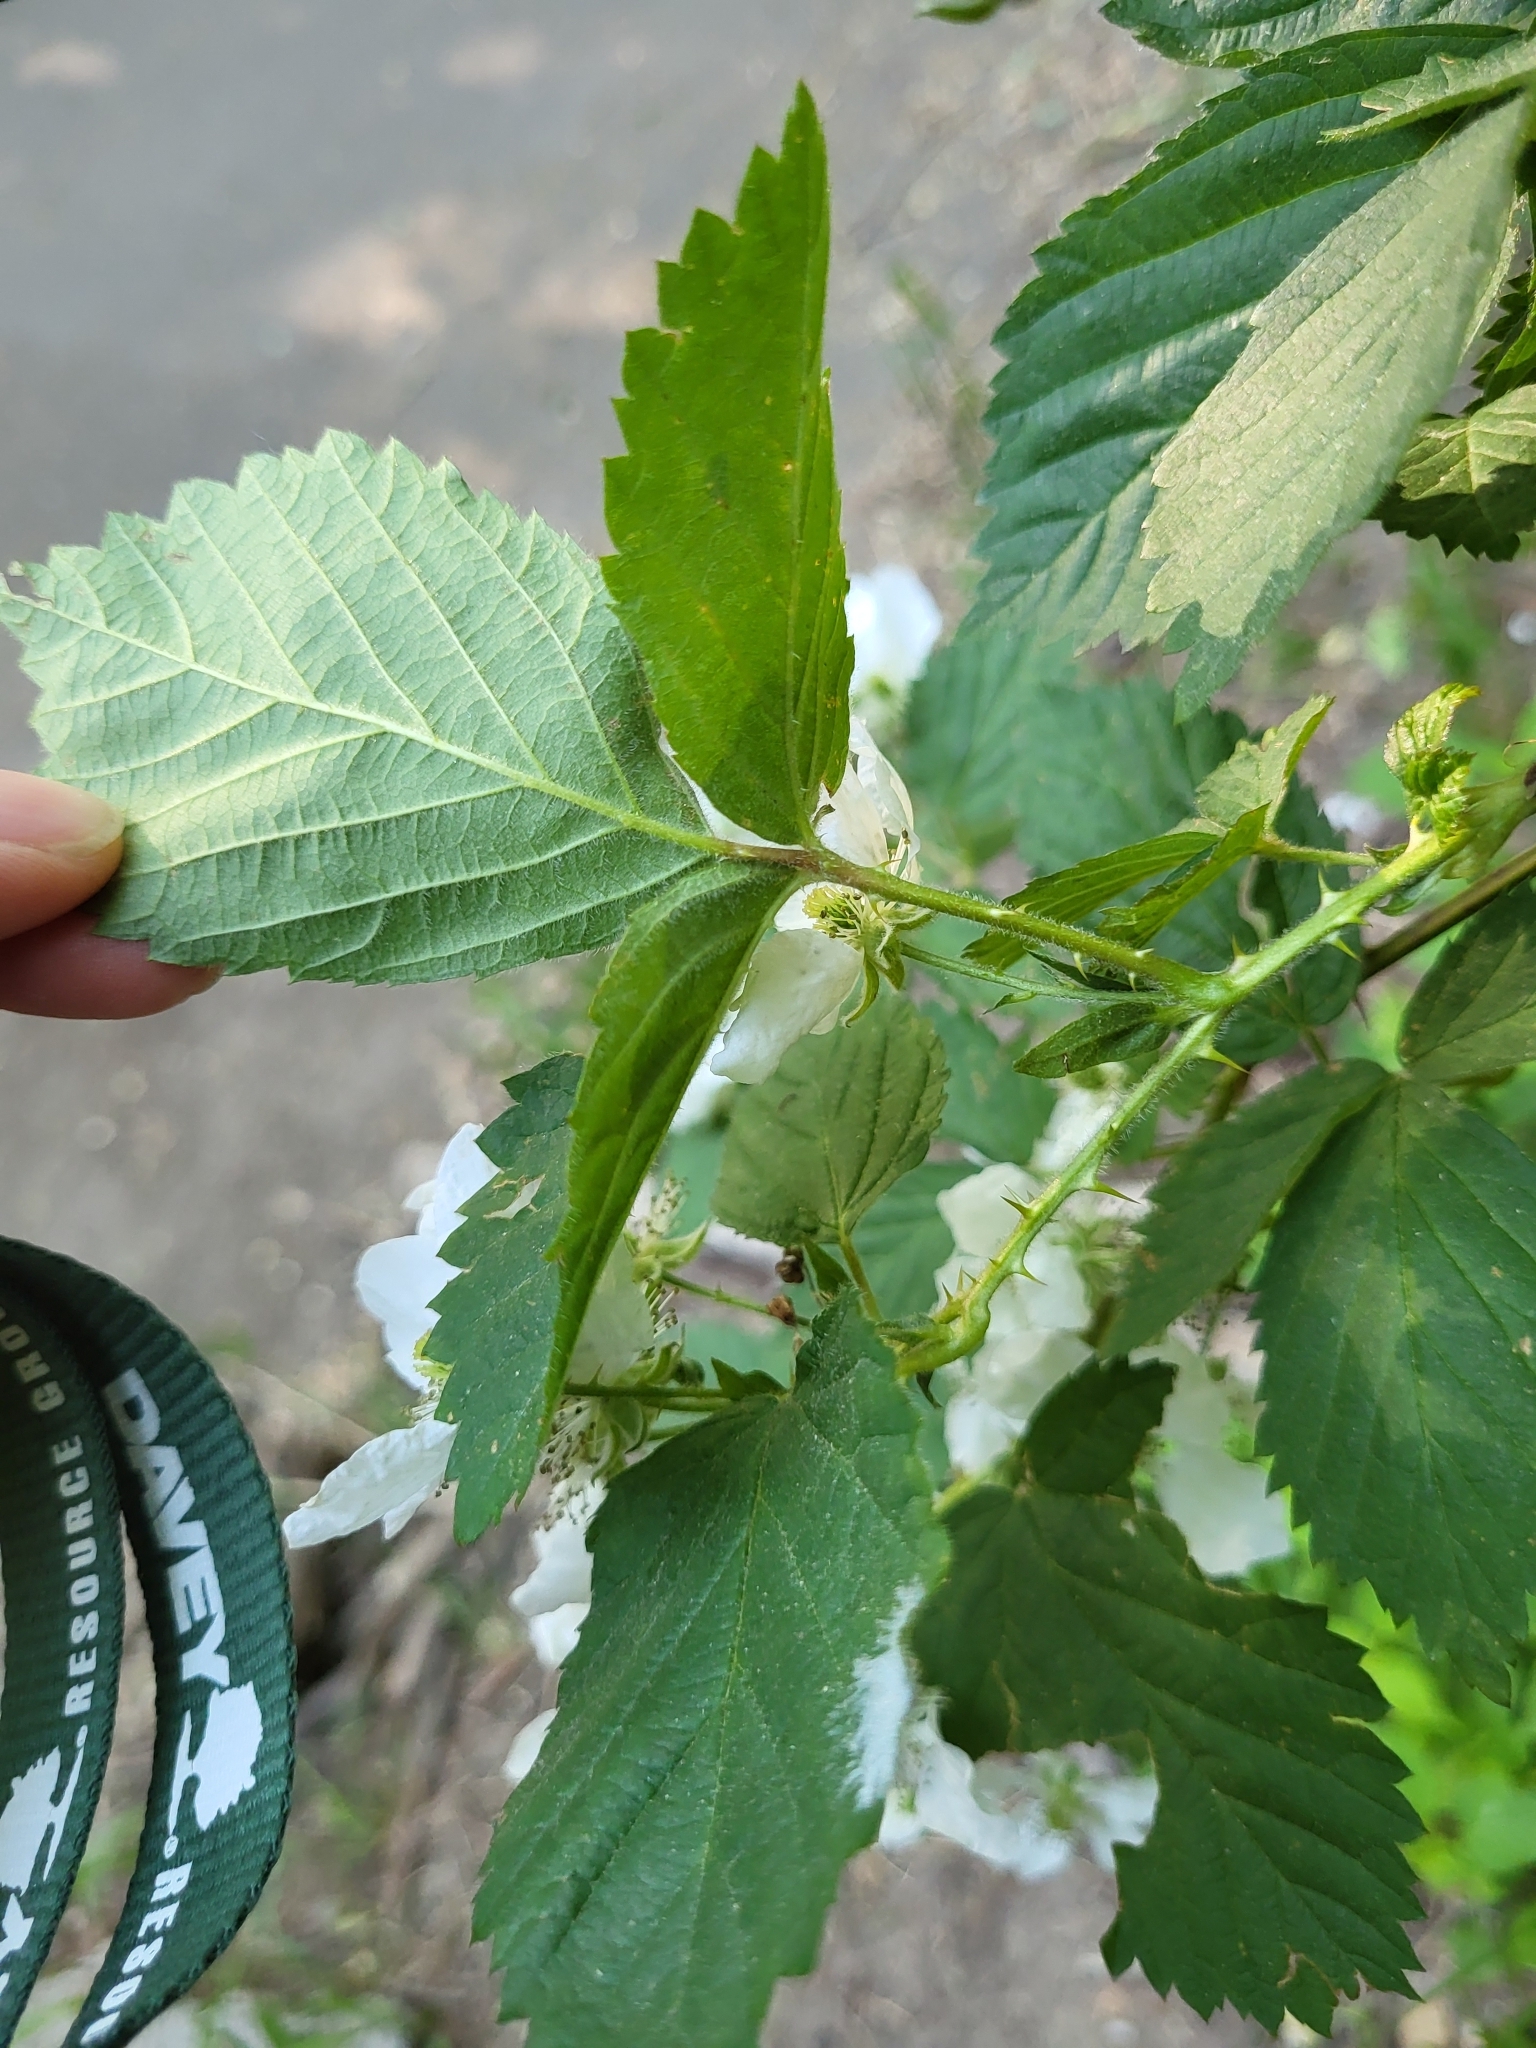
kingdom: Plantae
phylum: Tracheophyta
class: Magnoliopsida
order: Rosales
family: Rosaceae
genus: Rubus
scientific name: Rubus pensilvanicus
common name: Pennsylvania blackberry
